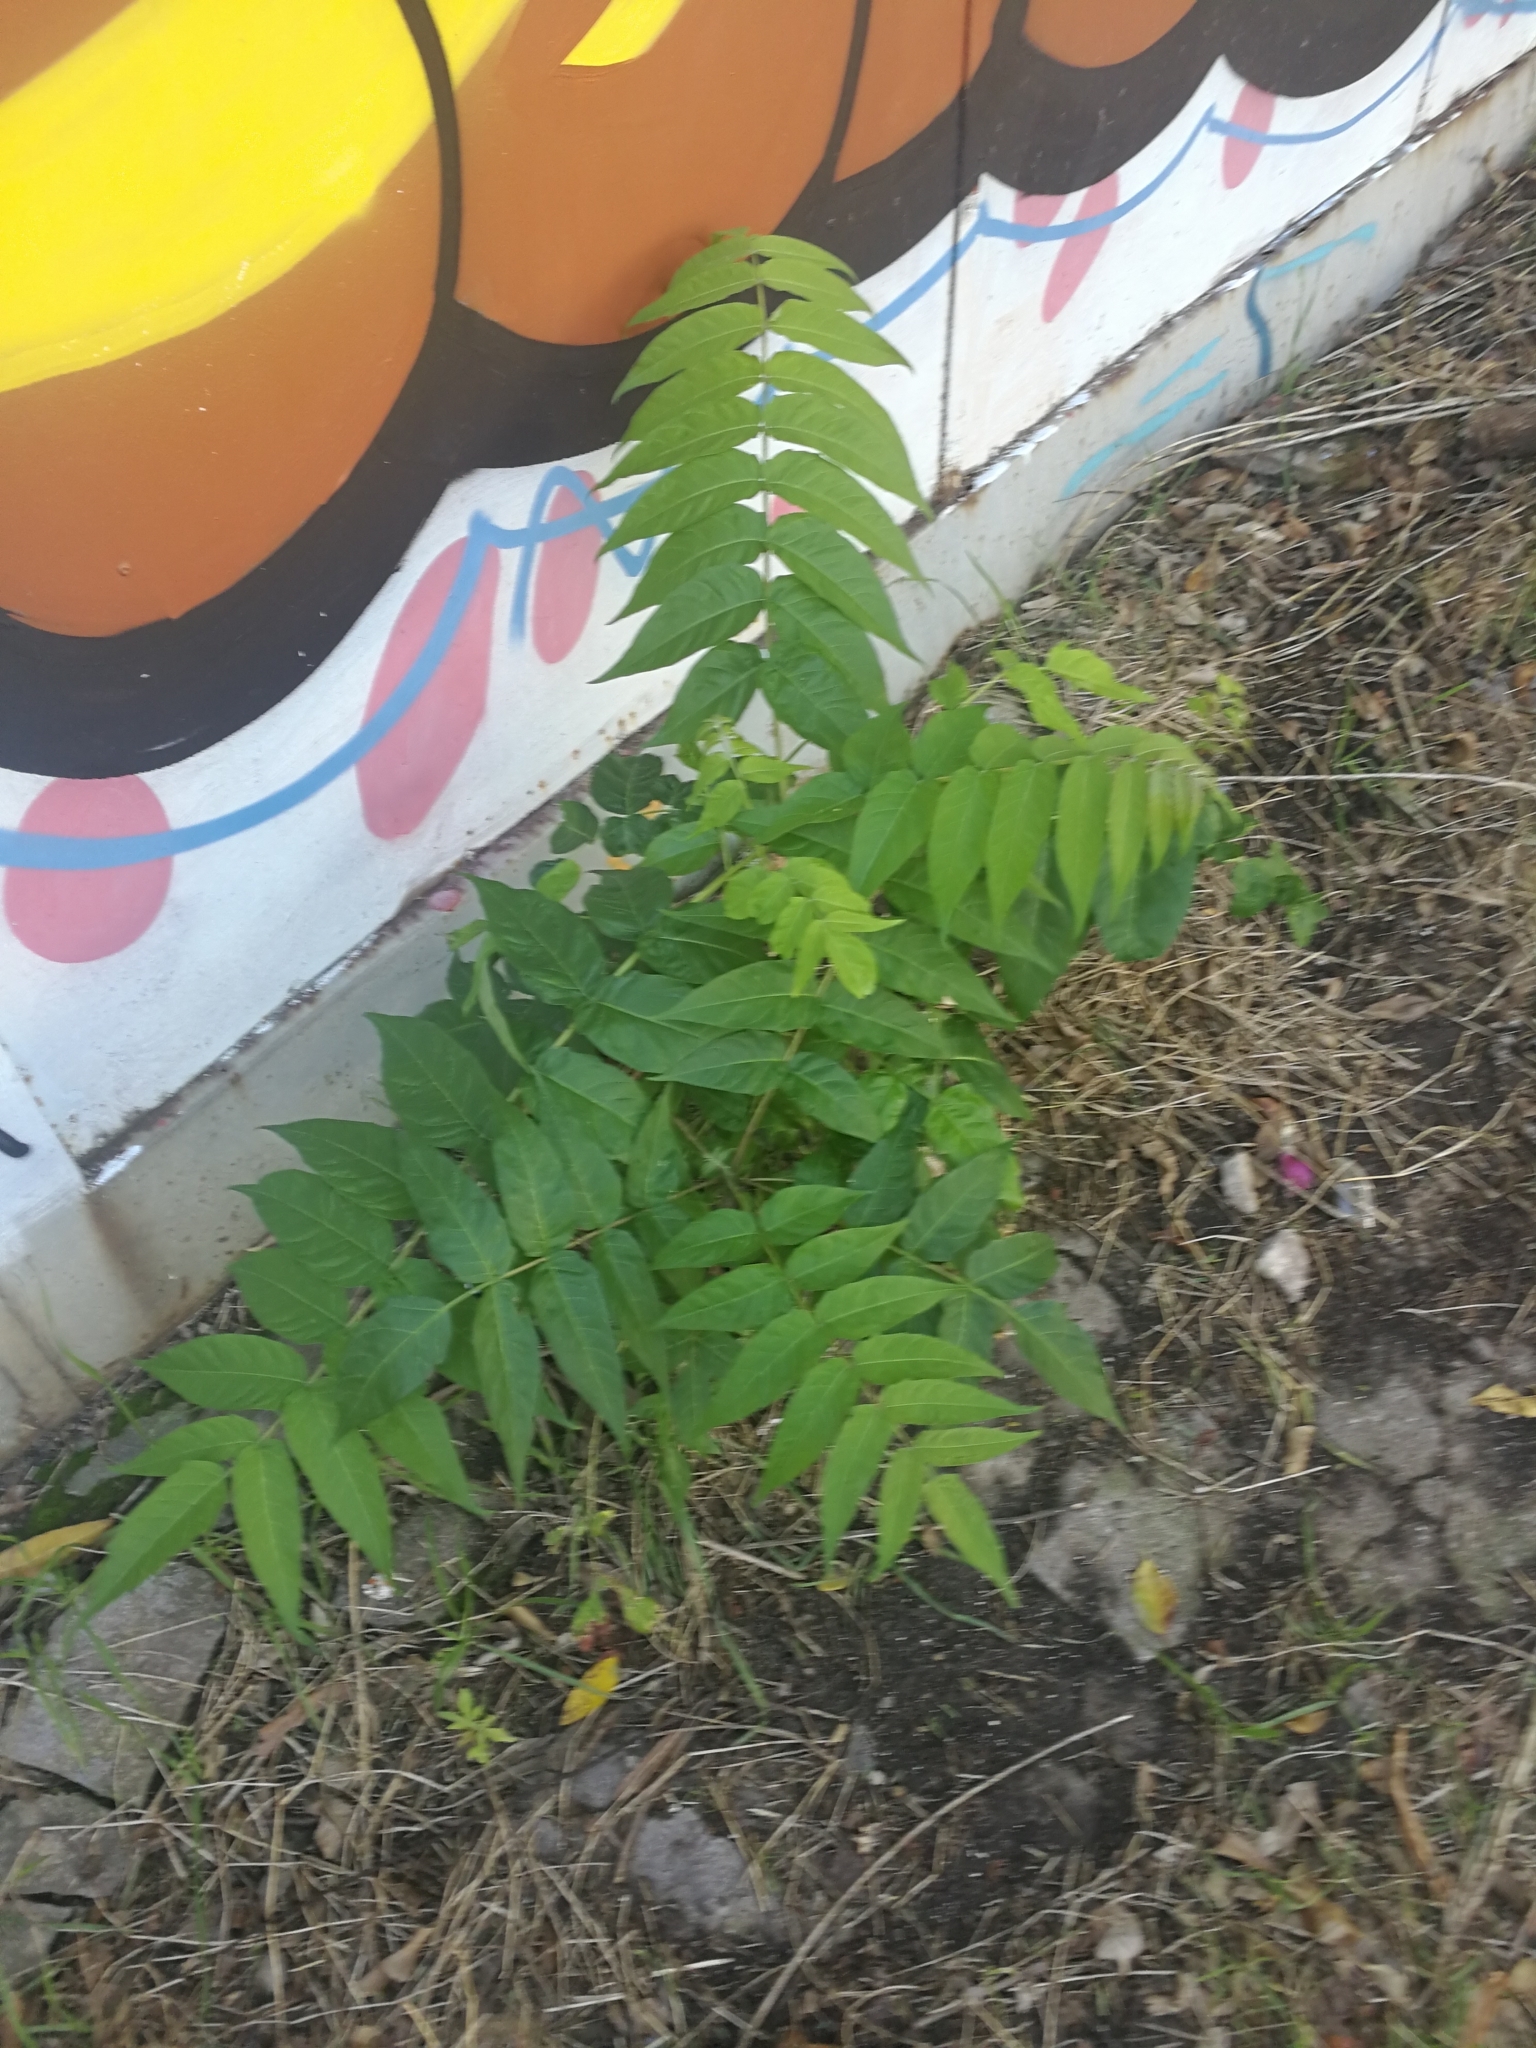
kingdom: Plantae
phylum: Tracheophyta
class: Magnoliopsida
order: Sapindales
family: Simaroubaceae
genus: Ailanthus
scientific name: Ailanthus altissima
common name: Tree-of-heaven
